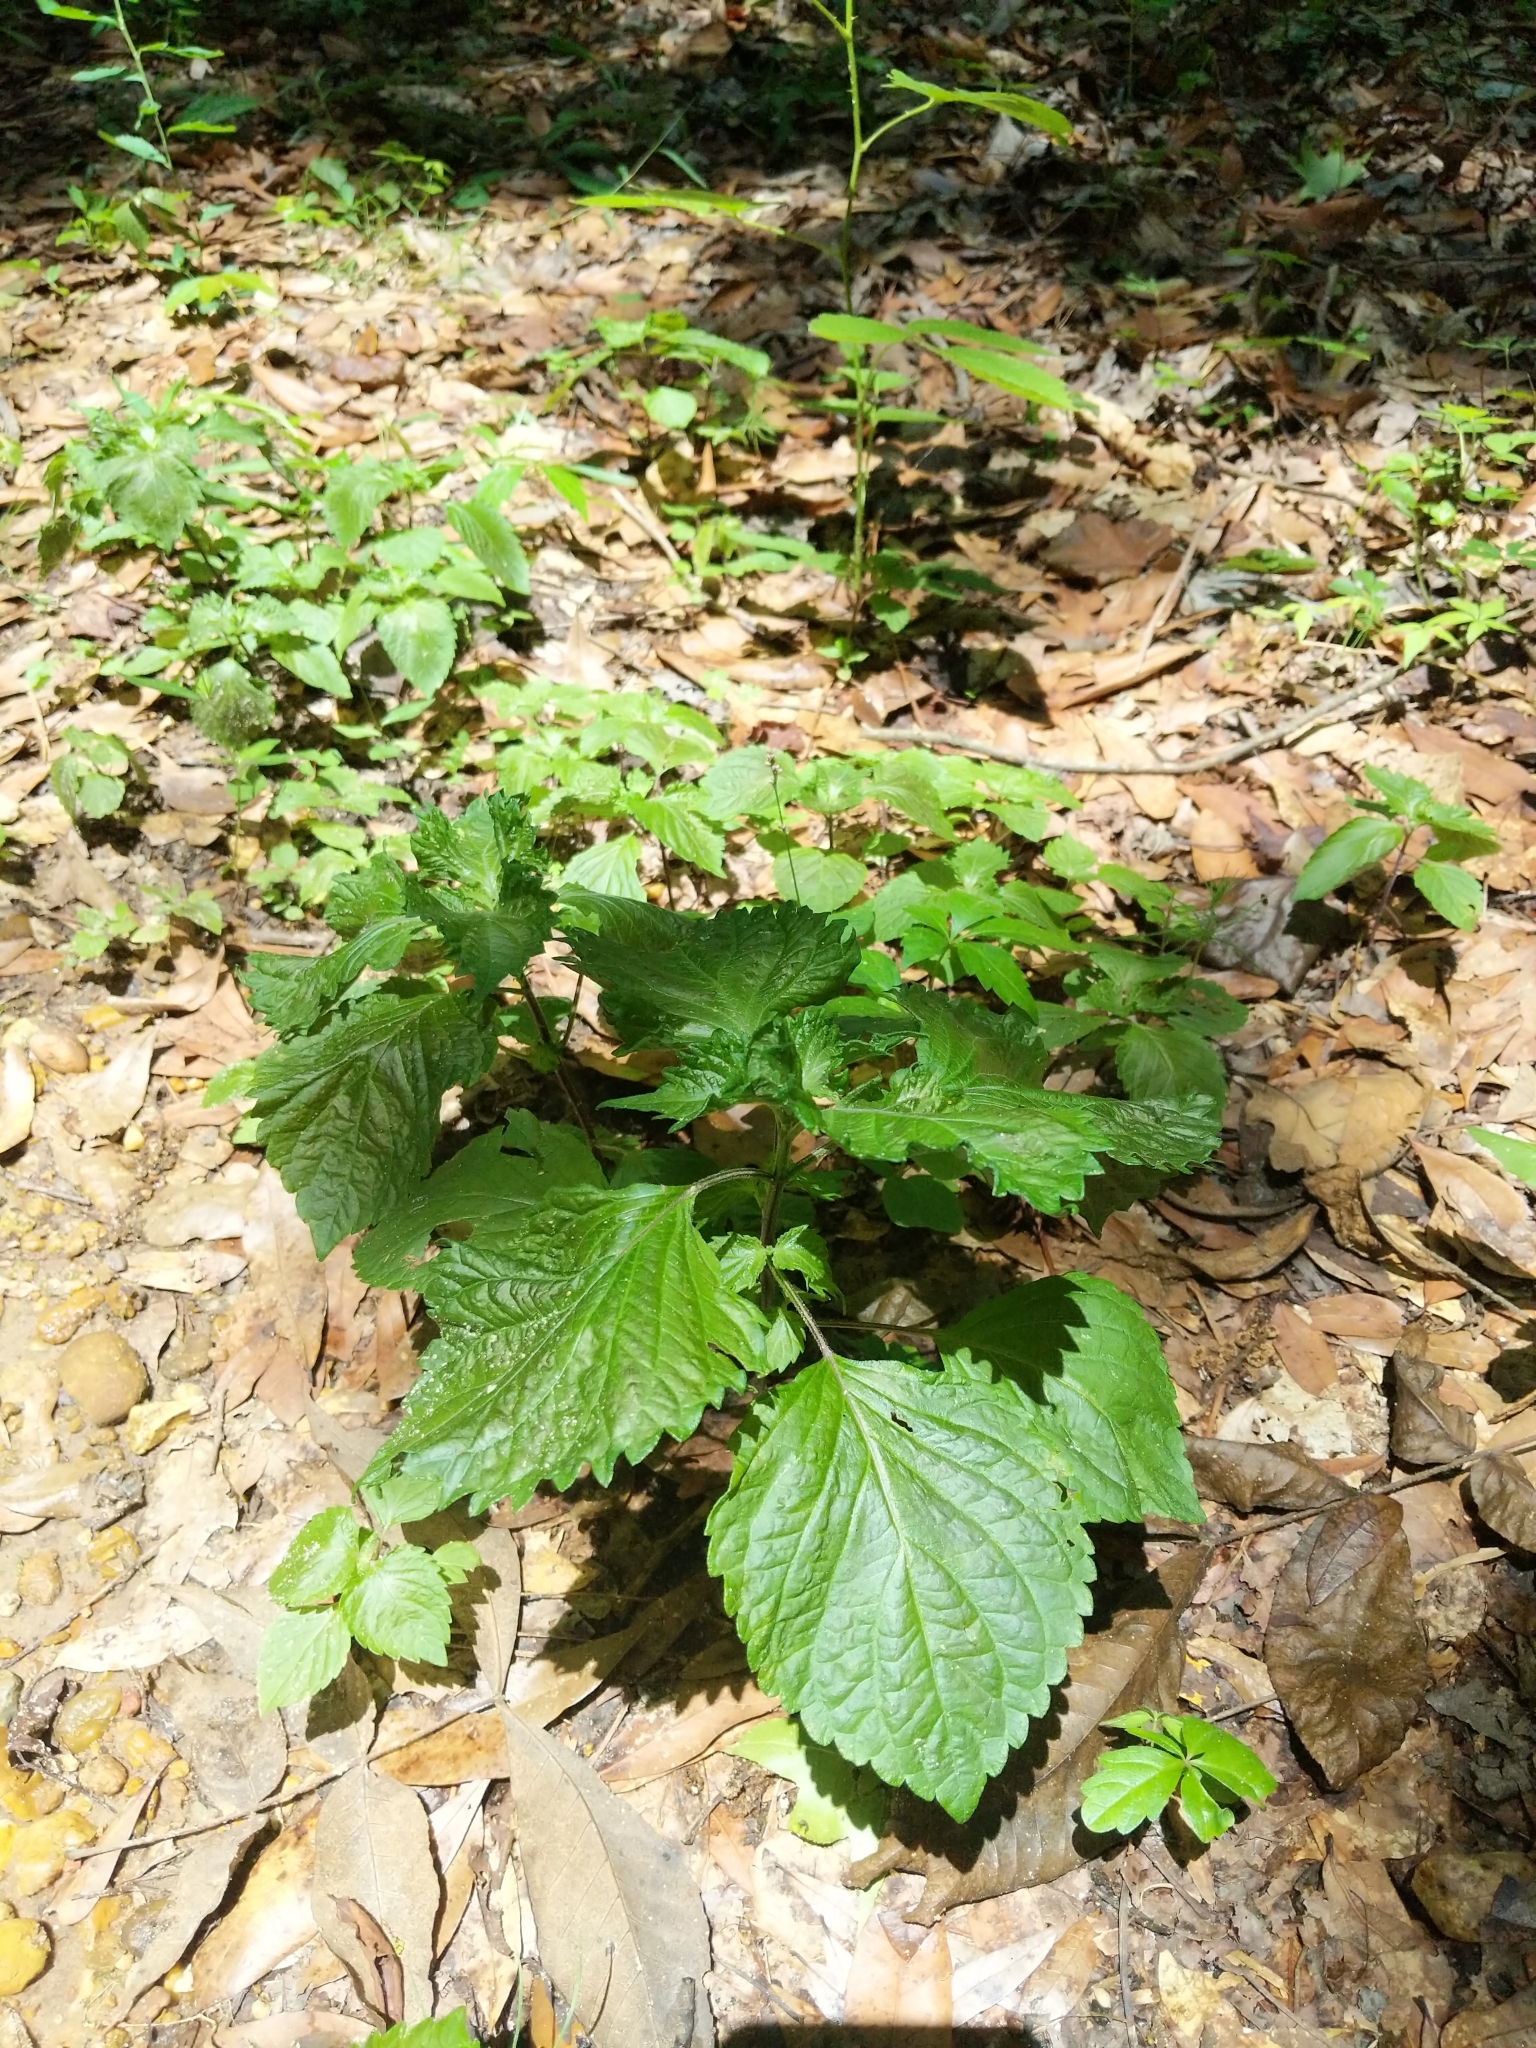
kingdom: Plantae
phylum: Tracheophyta
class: Magnoliopsida
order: Lamiales
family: Lamiaceae
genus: Perilla
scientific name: Perilla frutescens
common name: Perilla
